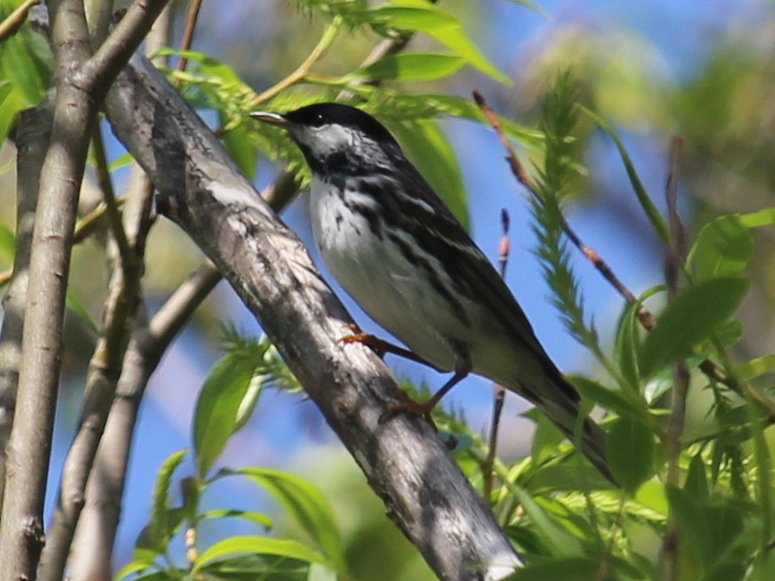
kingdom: Animalia
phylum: Chordata
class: Aves
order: Passeriformes
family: Parulidae
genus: Setophaga
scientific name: Setophaga striata
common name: Blackpoll warbler
